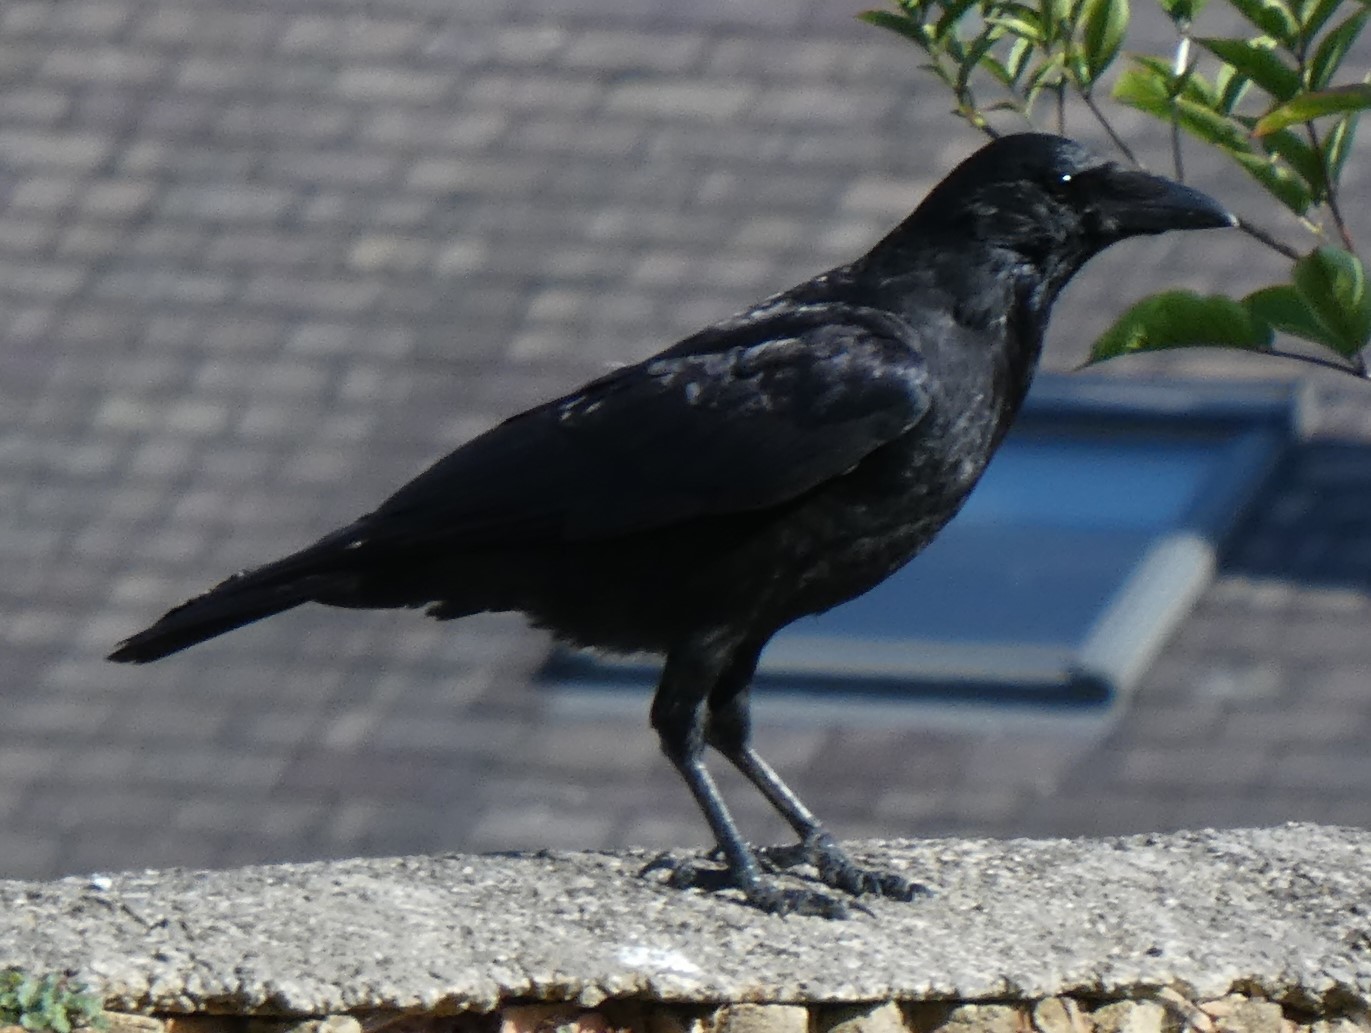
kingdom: Animalia
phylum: Chordata
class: Aves
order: Passeriformes
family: Corvidae
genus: Corvus
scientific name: Corvus corone
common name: Carrion crow
